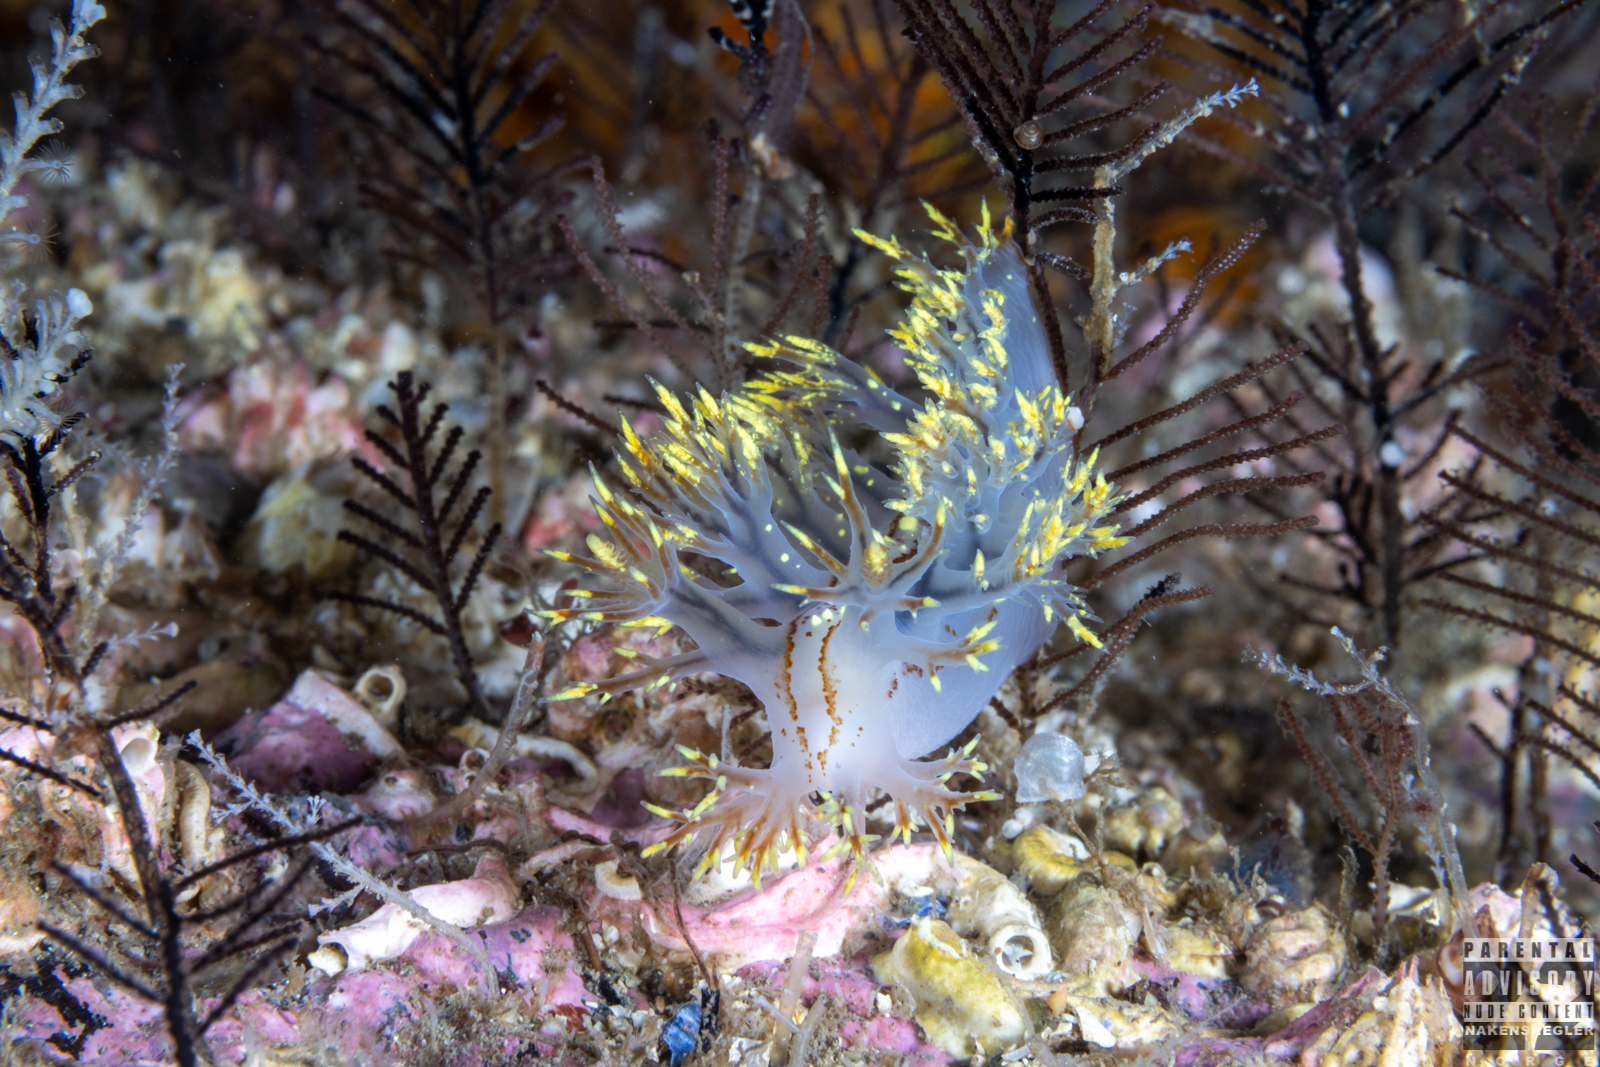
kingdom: Animalia
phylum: Mollusca
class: Gastropoda
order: Nudibranchia
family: Dendronotidae
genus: Dendronotus
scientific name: Dendronotus yrjargul
